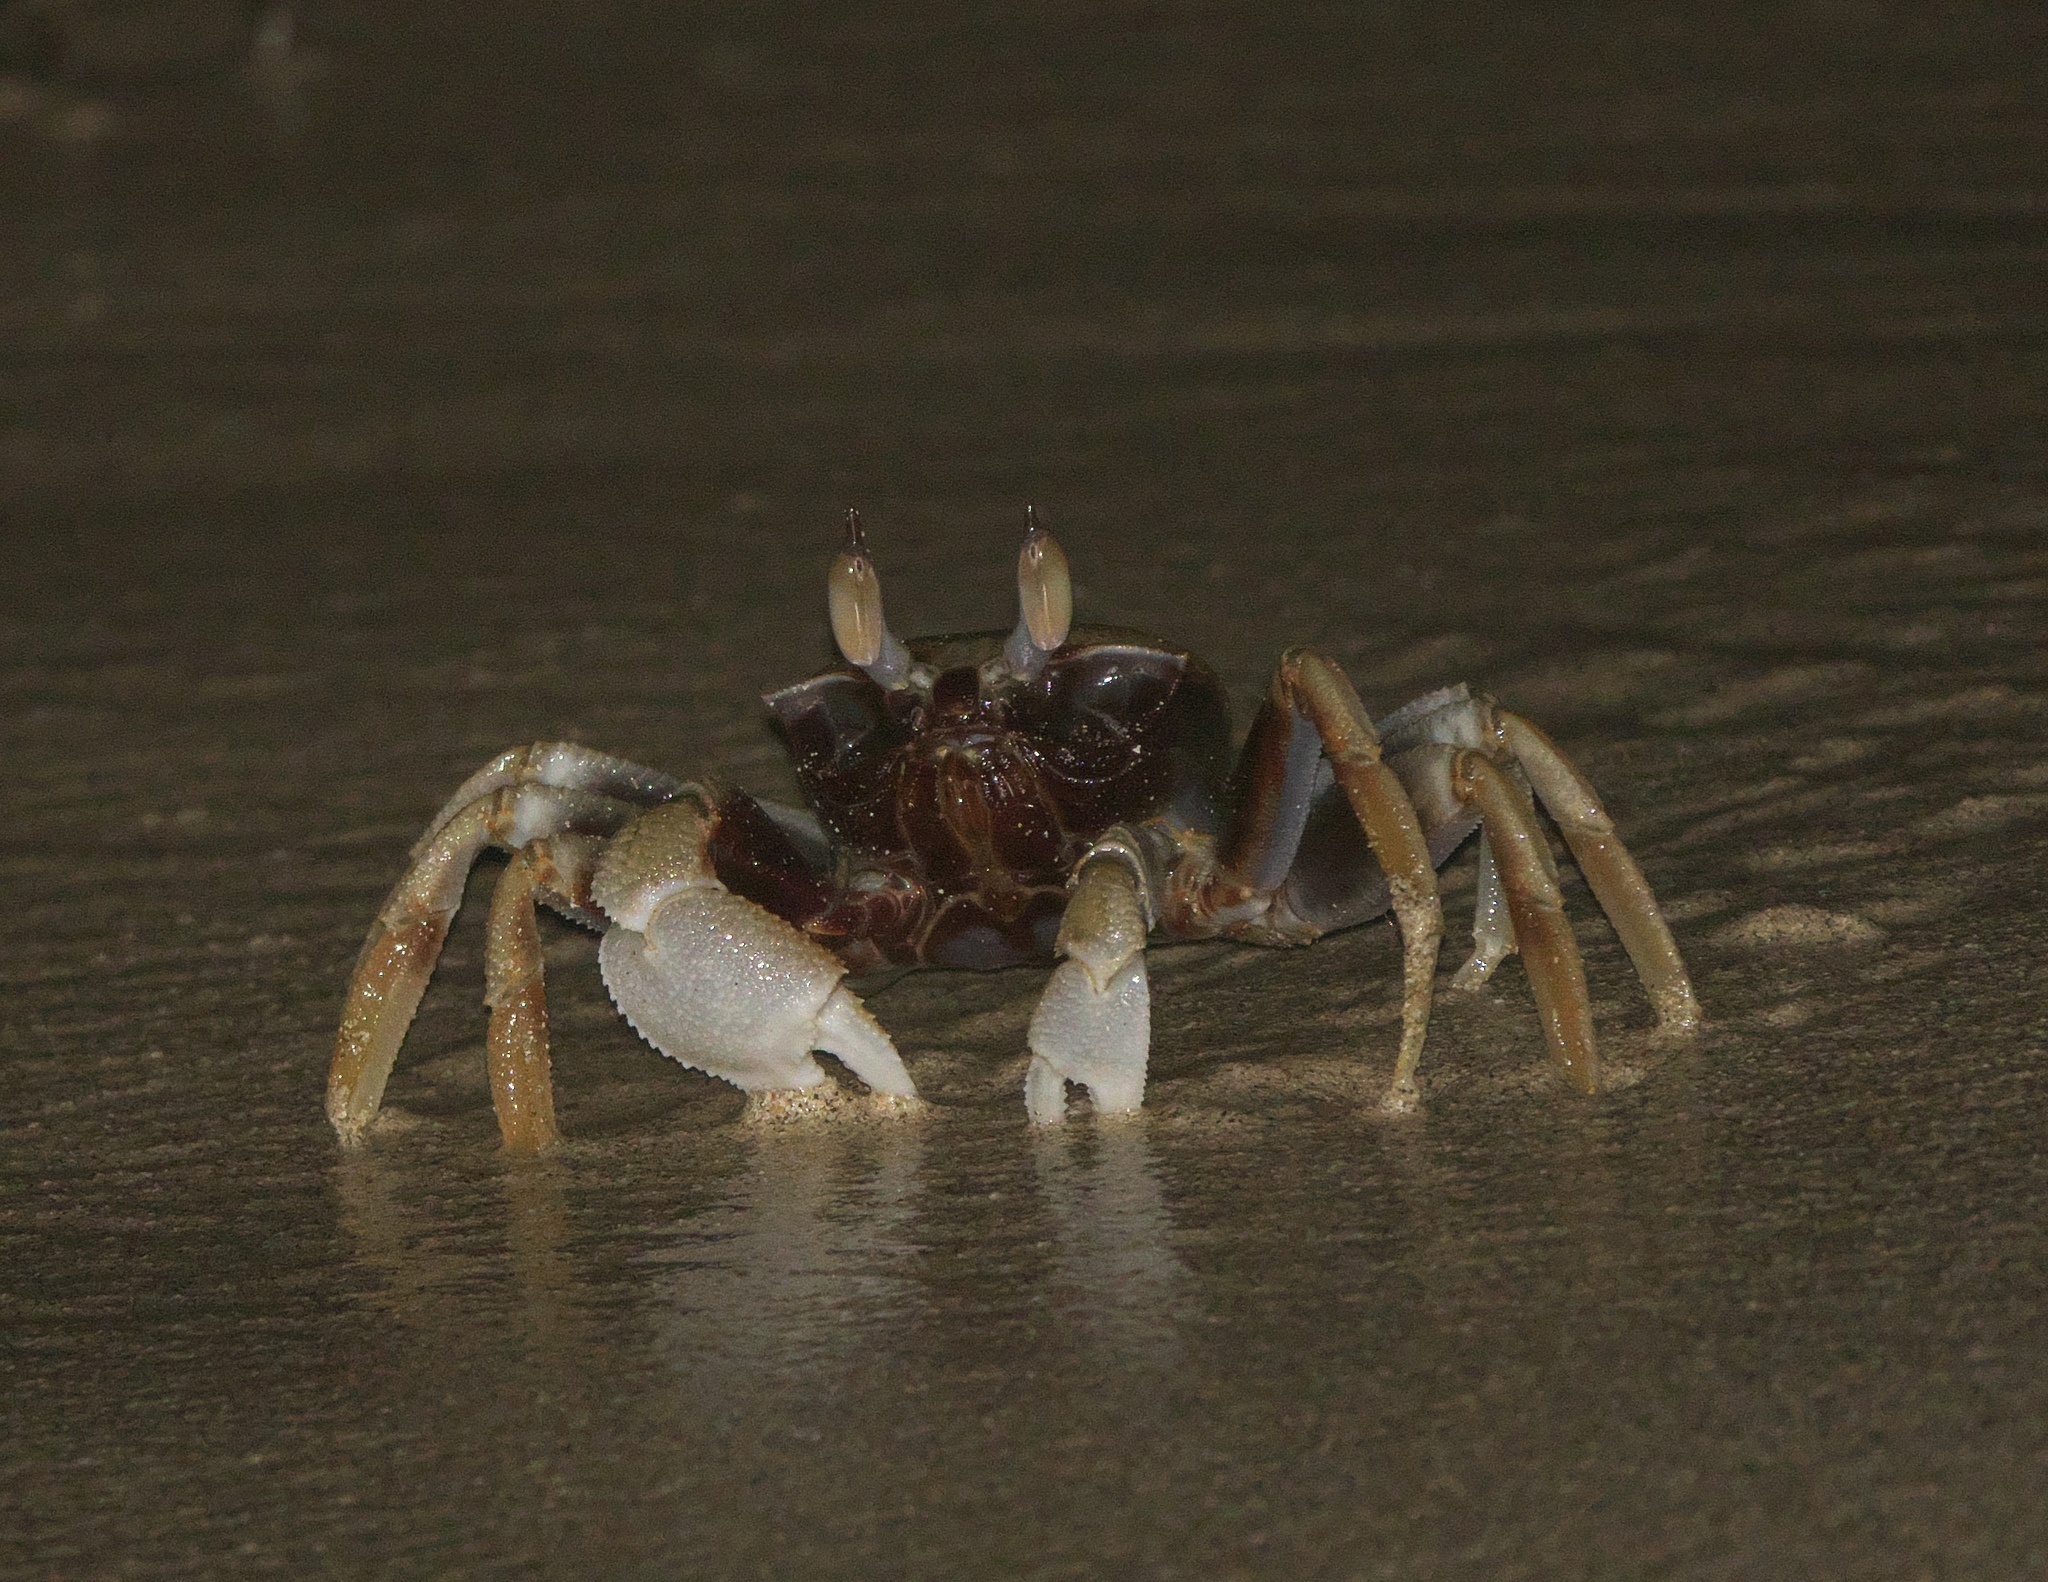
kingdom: Animalia
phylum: Arthropoda
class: Malacostraca
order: Decapoda
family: Ocypodidae
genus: Ocypode
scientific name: Ocypode ceratophthalmus
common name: Indo-pacific ghost crab
